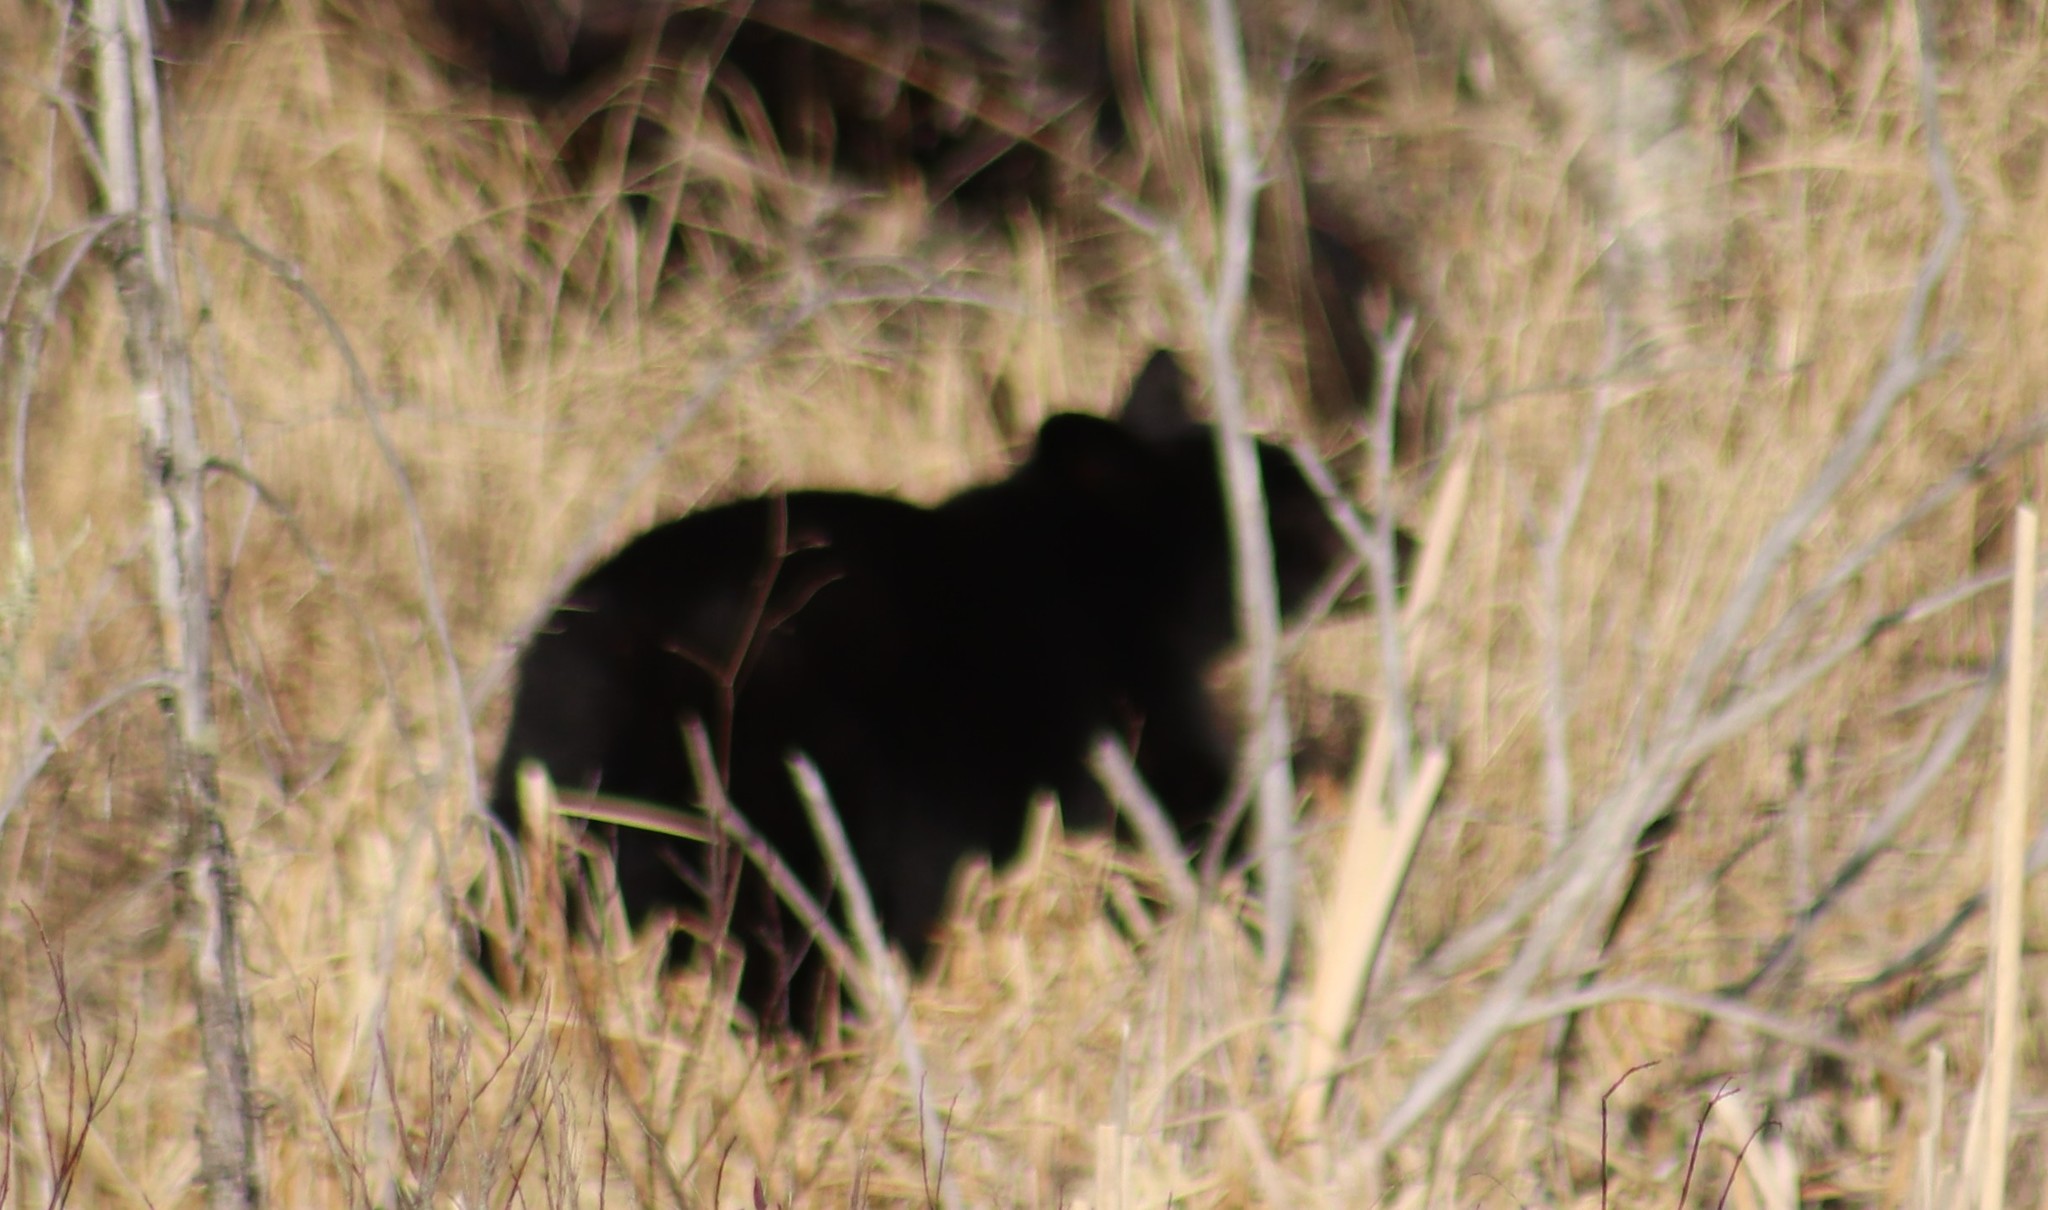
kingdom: Animalia
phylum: Chordata
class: Mammalia
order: Carnivora
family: Ursidae
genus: Ursus
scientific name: Ursus americanus
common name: American black bear
